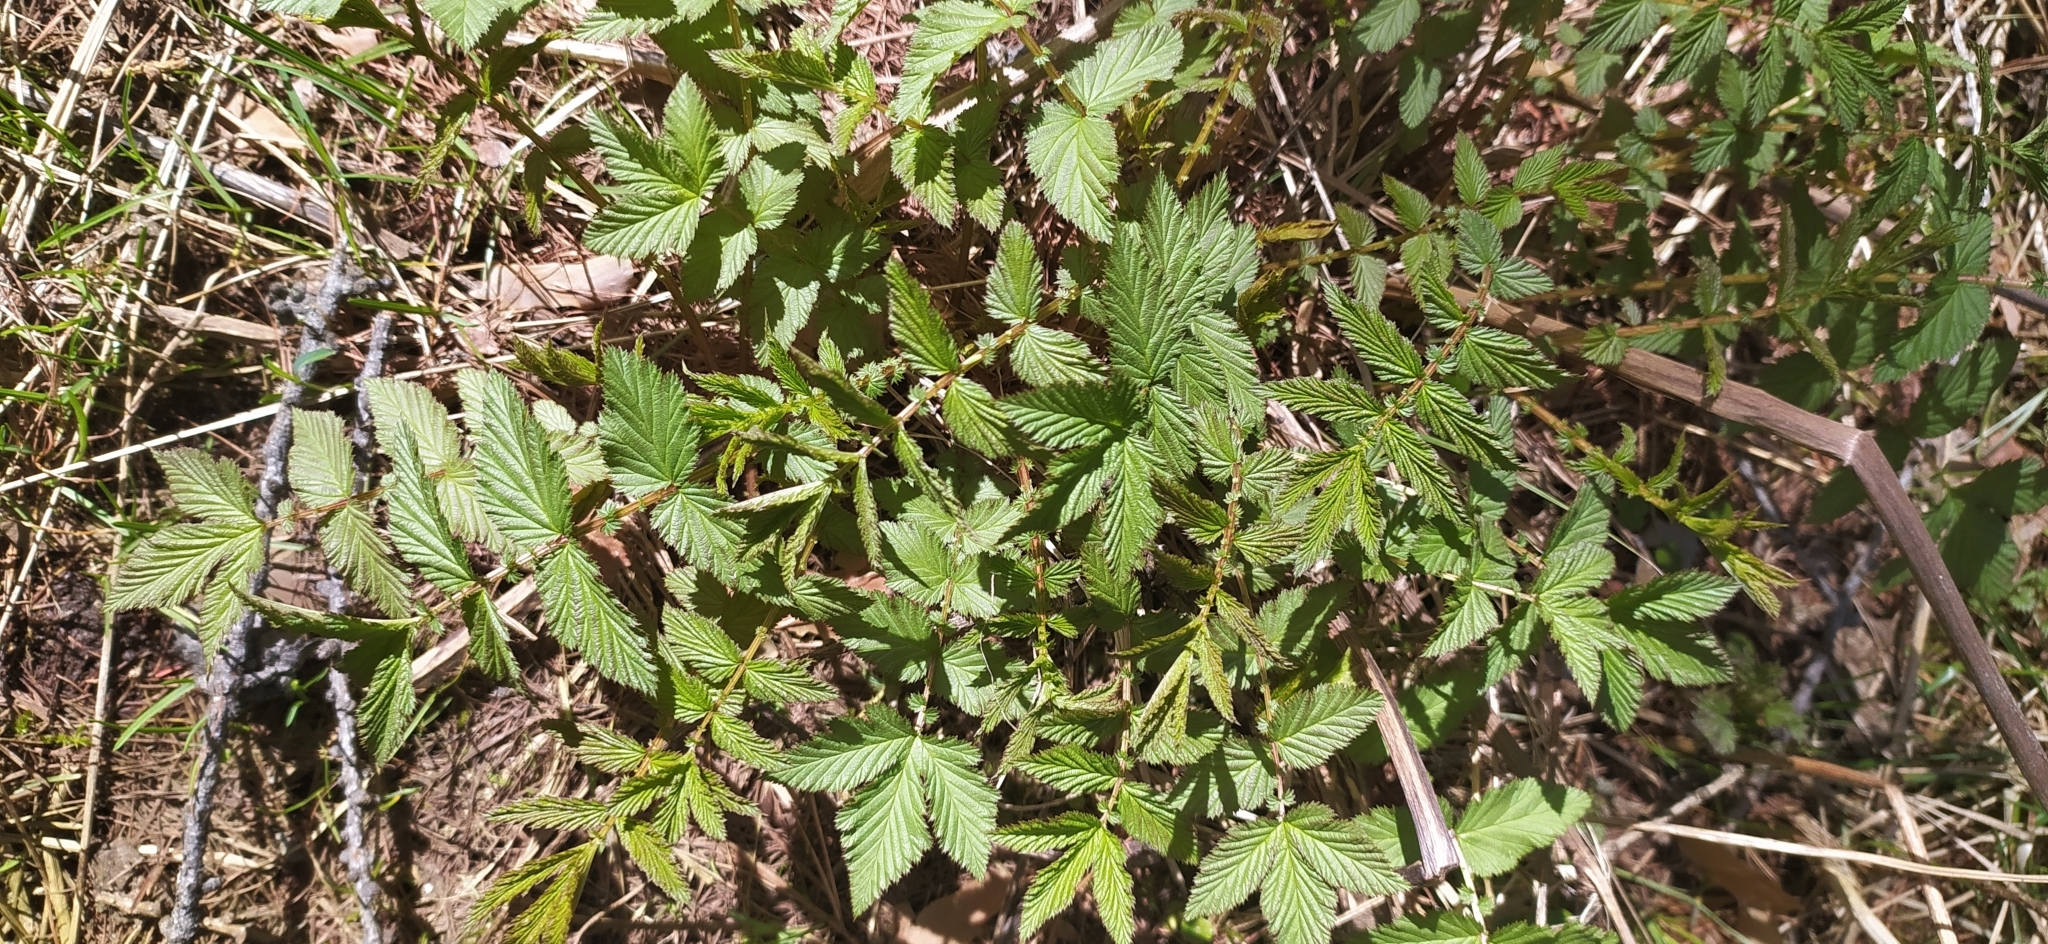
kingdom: Plantae
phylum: Tracheophyta
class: Magnoliopsida
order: Rosales
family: Rosaceae
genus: Filipendula
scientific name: Filipendula ulmaria
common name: Meadowsweet
